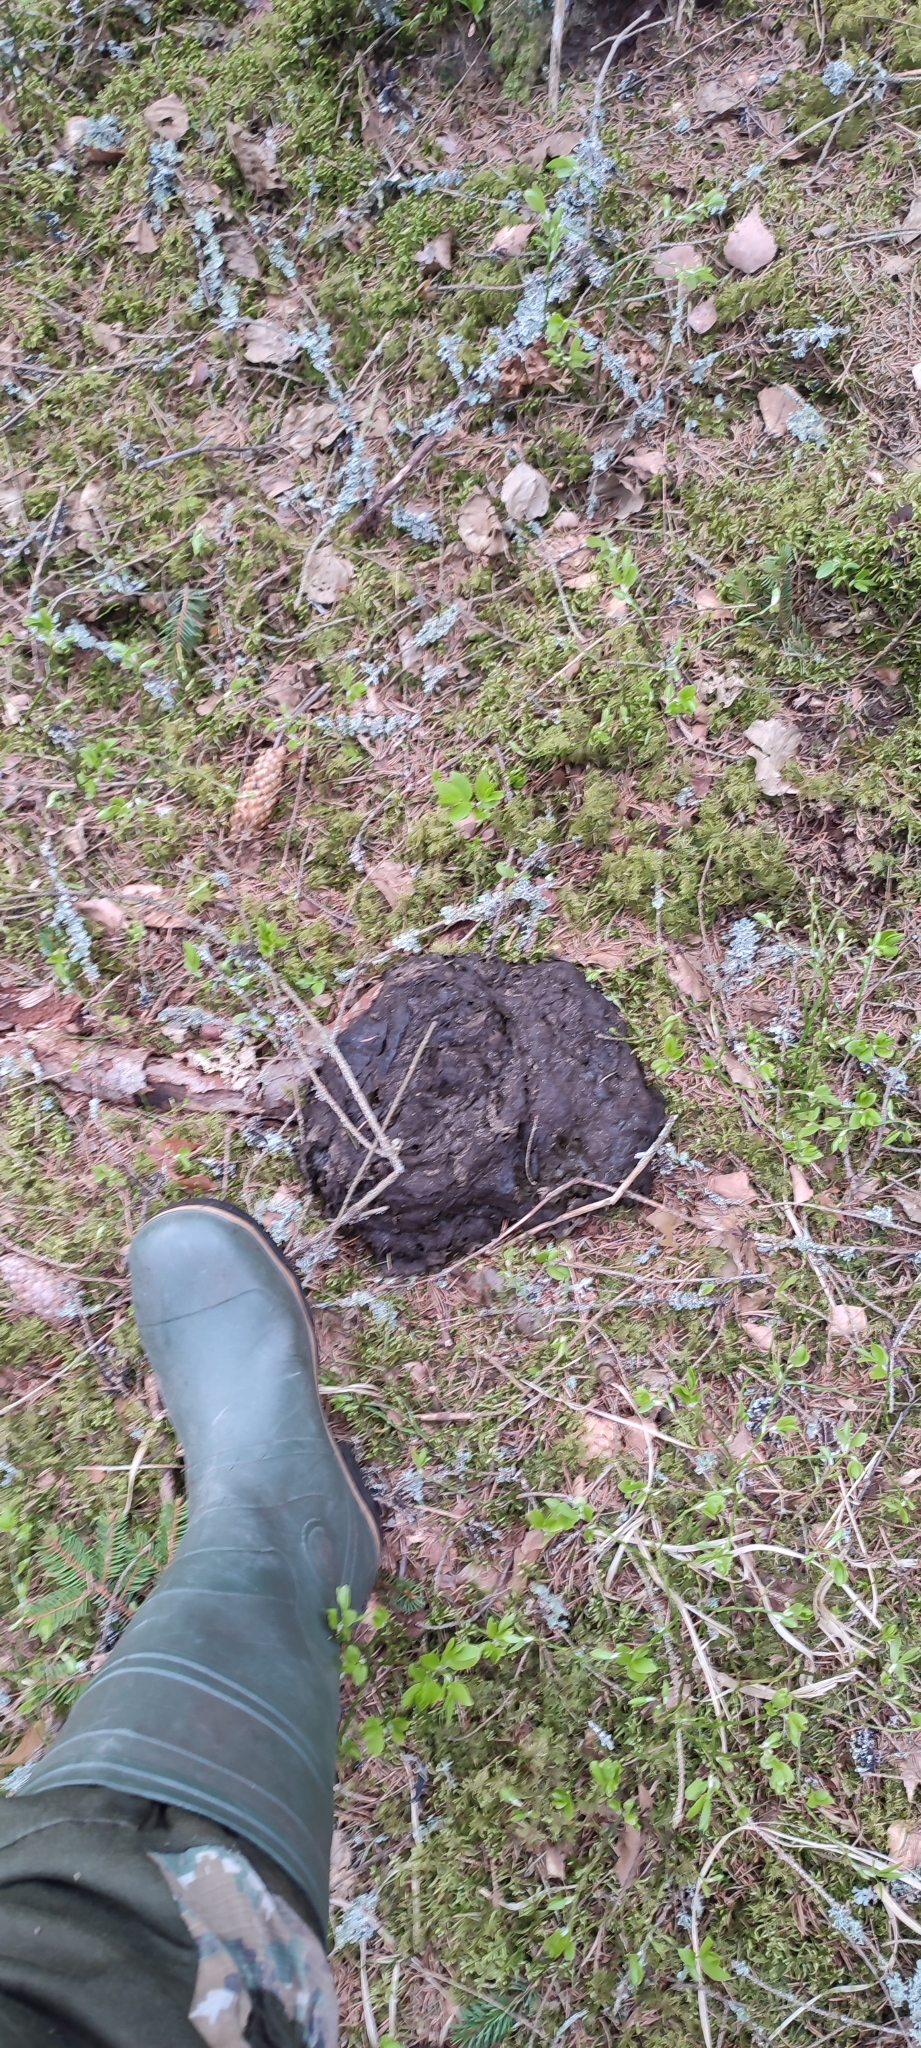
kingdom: Animalia
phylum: Chordata
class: Mammalia
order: Artiodactyla
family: Bovidae
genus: Bison
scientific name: Bison bonasus
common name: European bison
